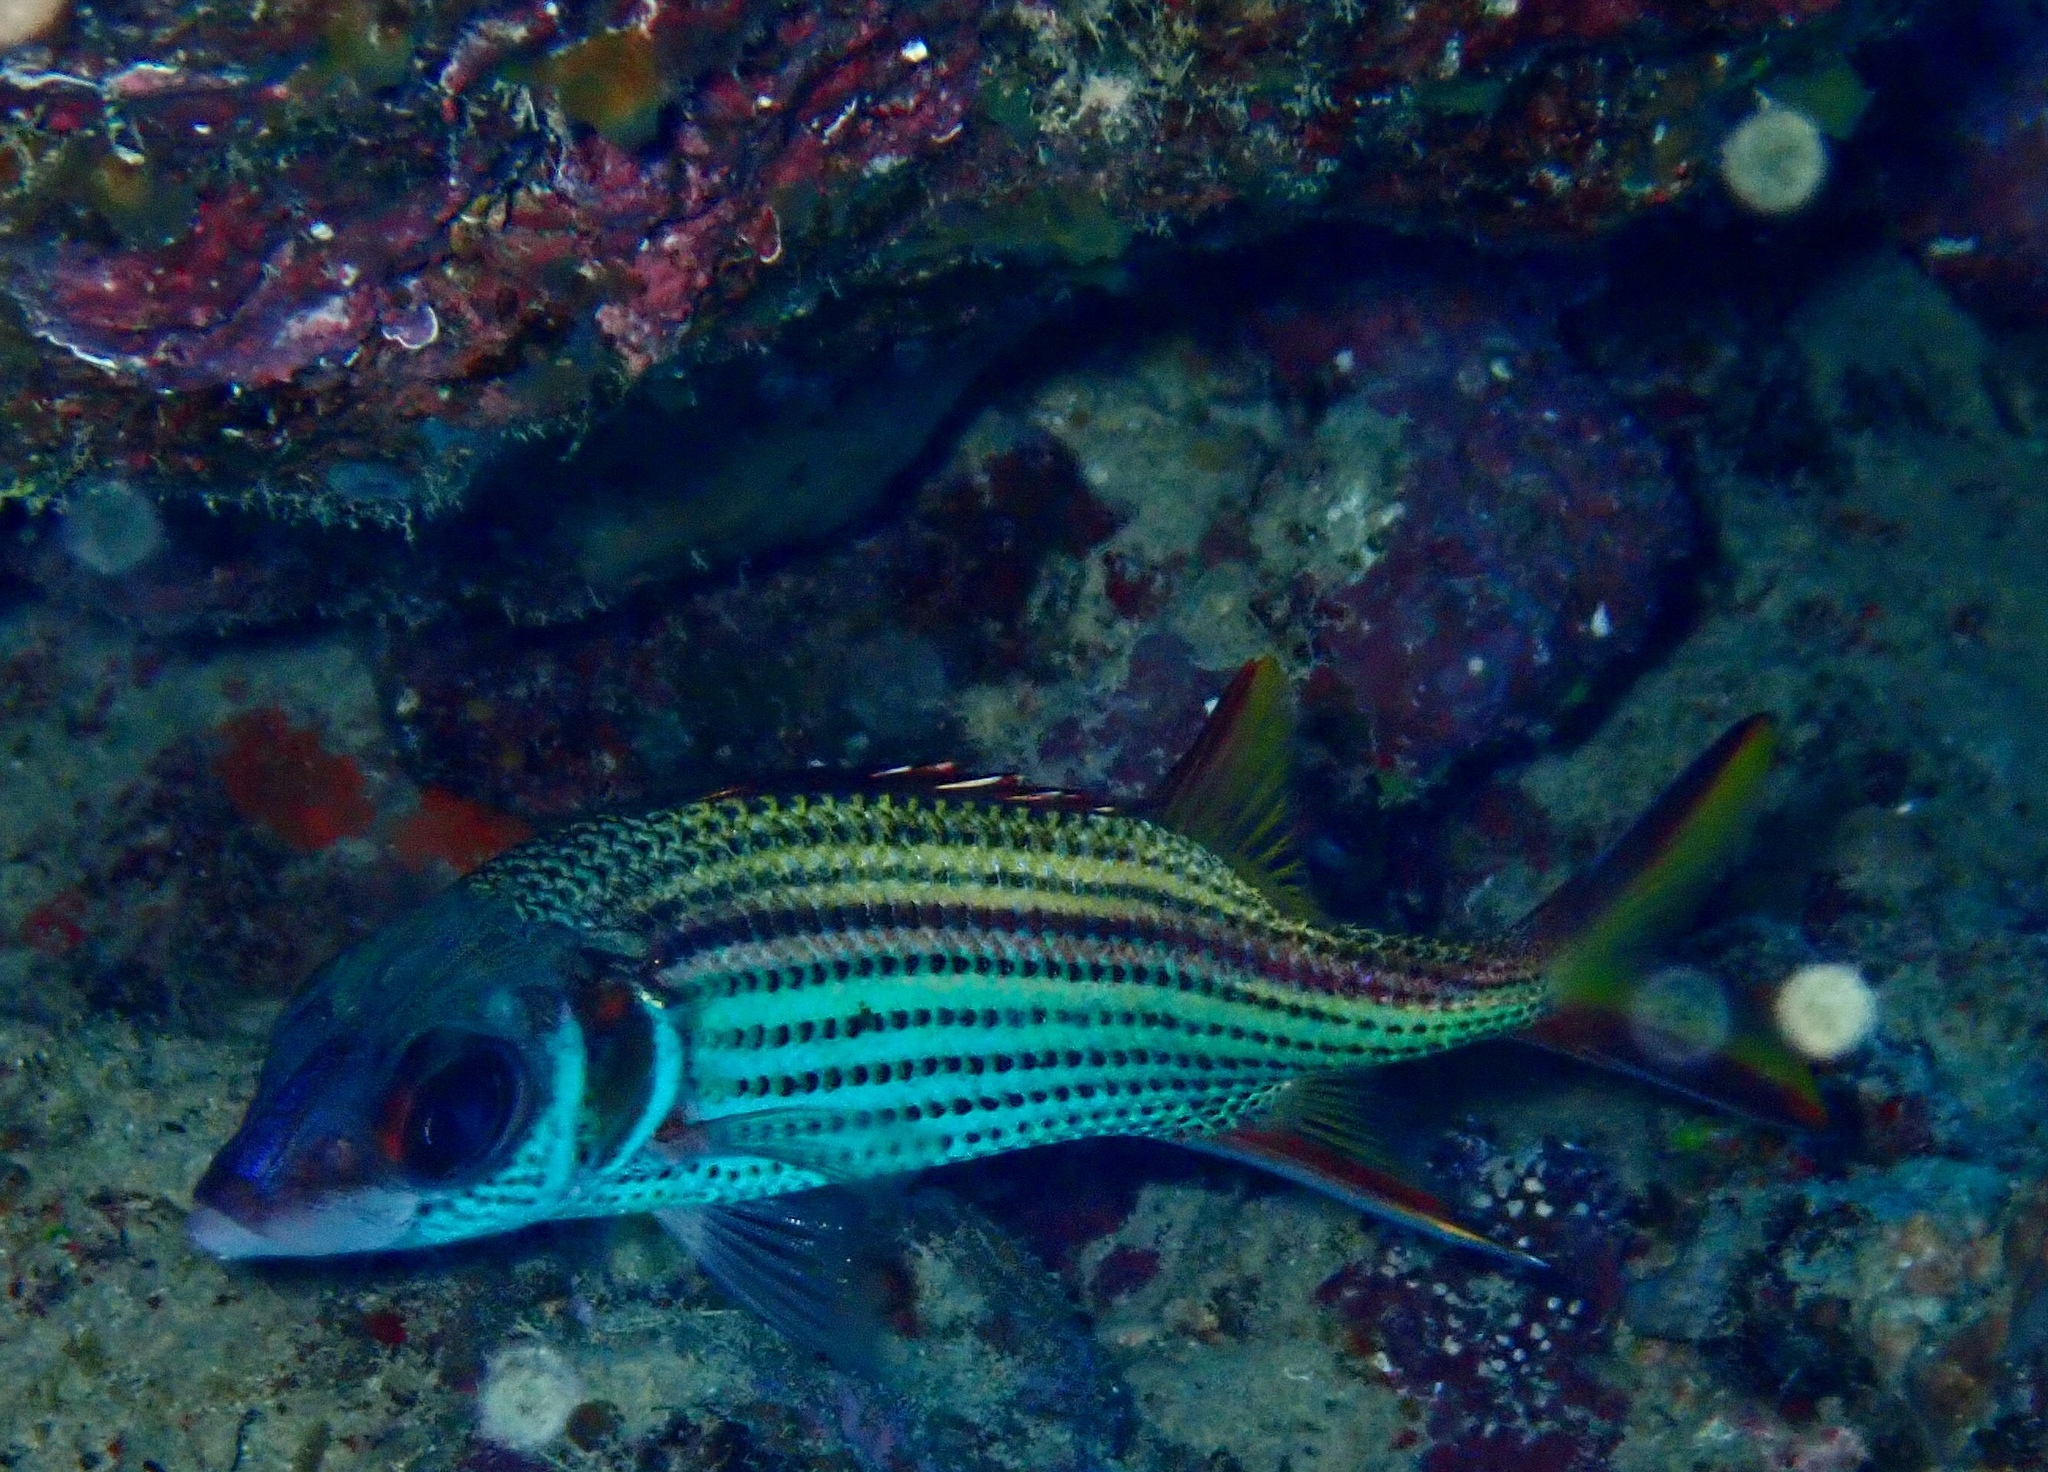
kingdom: Animalia
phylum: Chordata
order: Beryciformes
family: Holocentridae
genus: Neoniphon
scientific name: Neoniphon sammara
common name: Sammara squirrelfish
